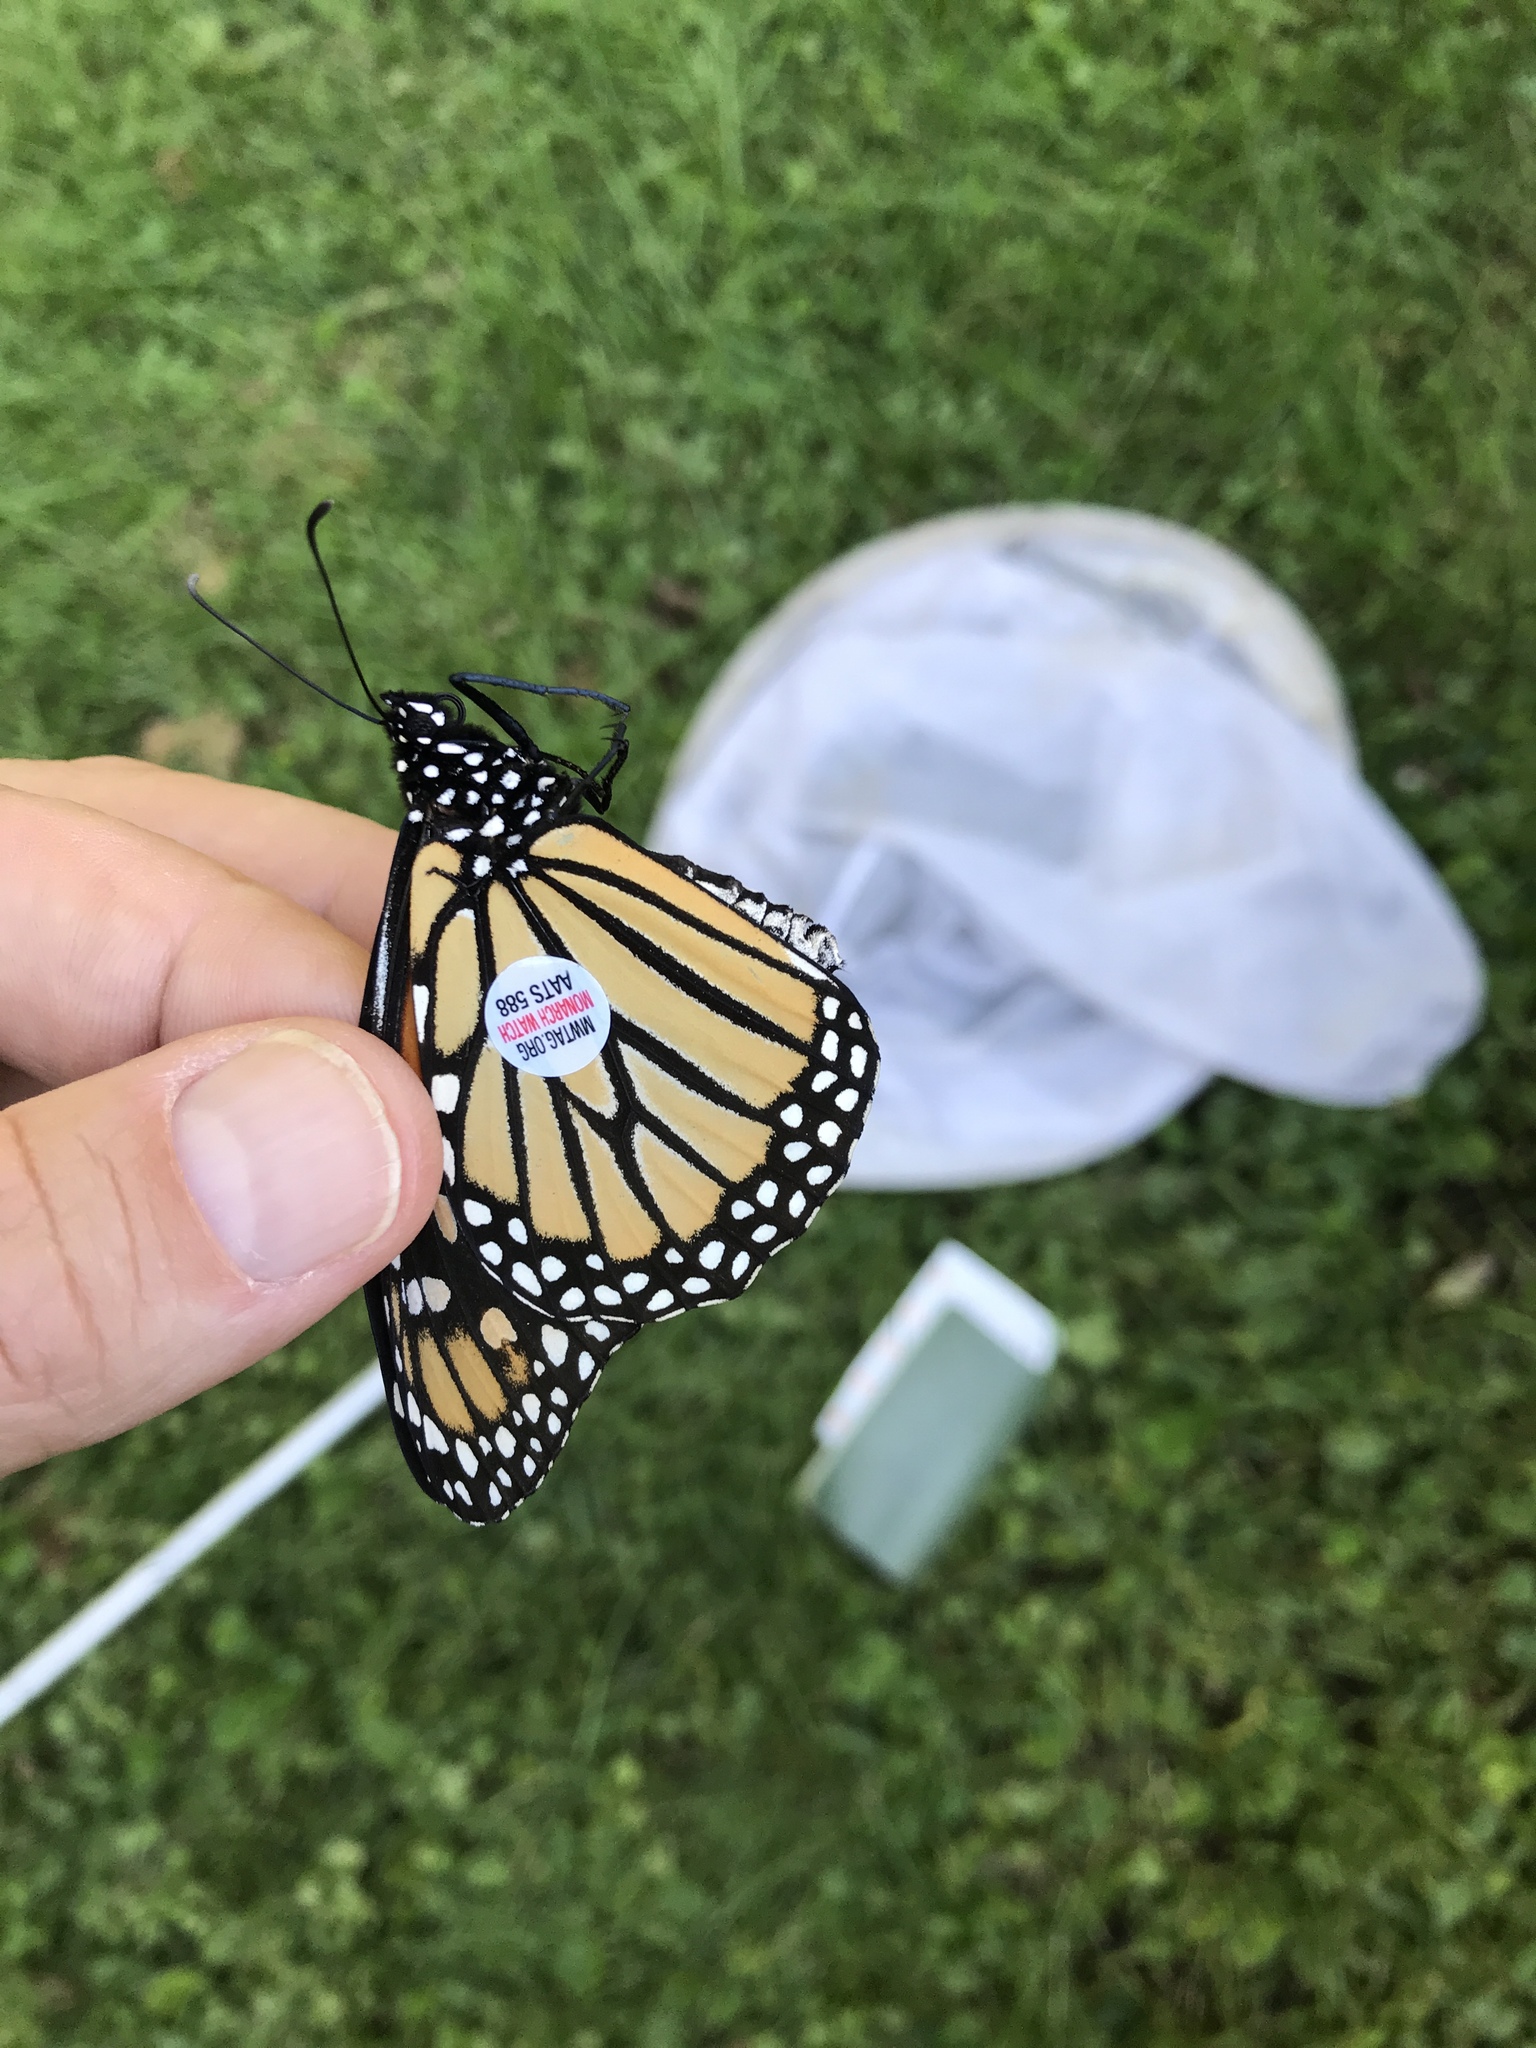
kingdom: Animalia
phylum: Arthropoda
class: Insecta
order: Lepidoptera
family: Nymphalidae
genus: Danaus
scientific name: Danaus plexippus
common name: Monarch
